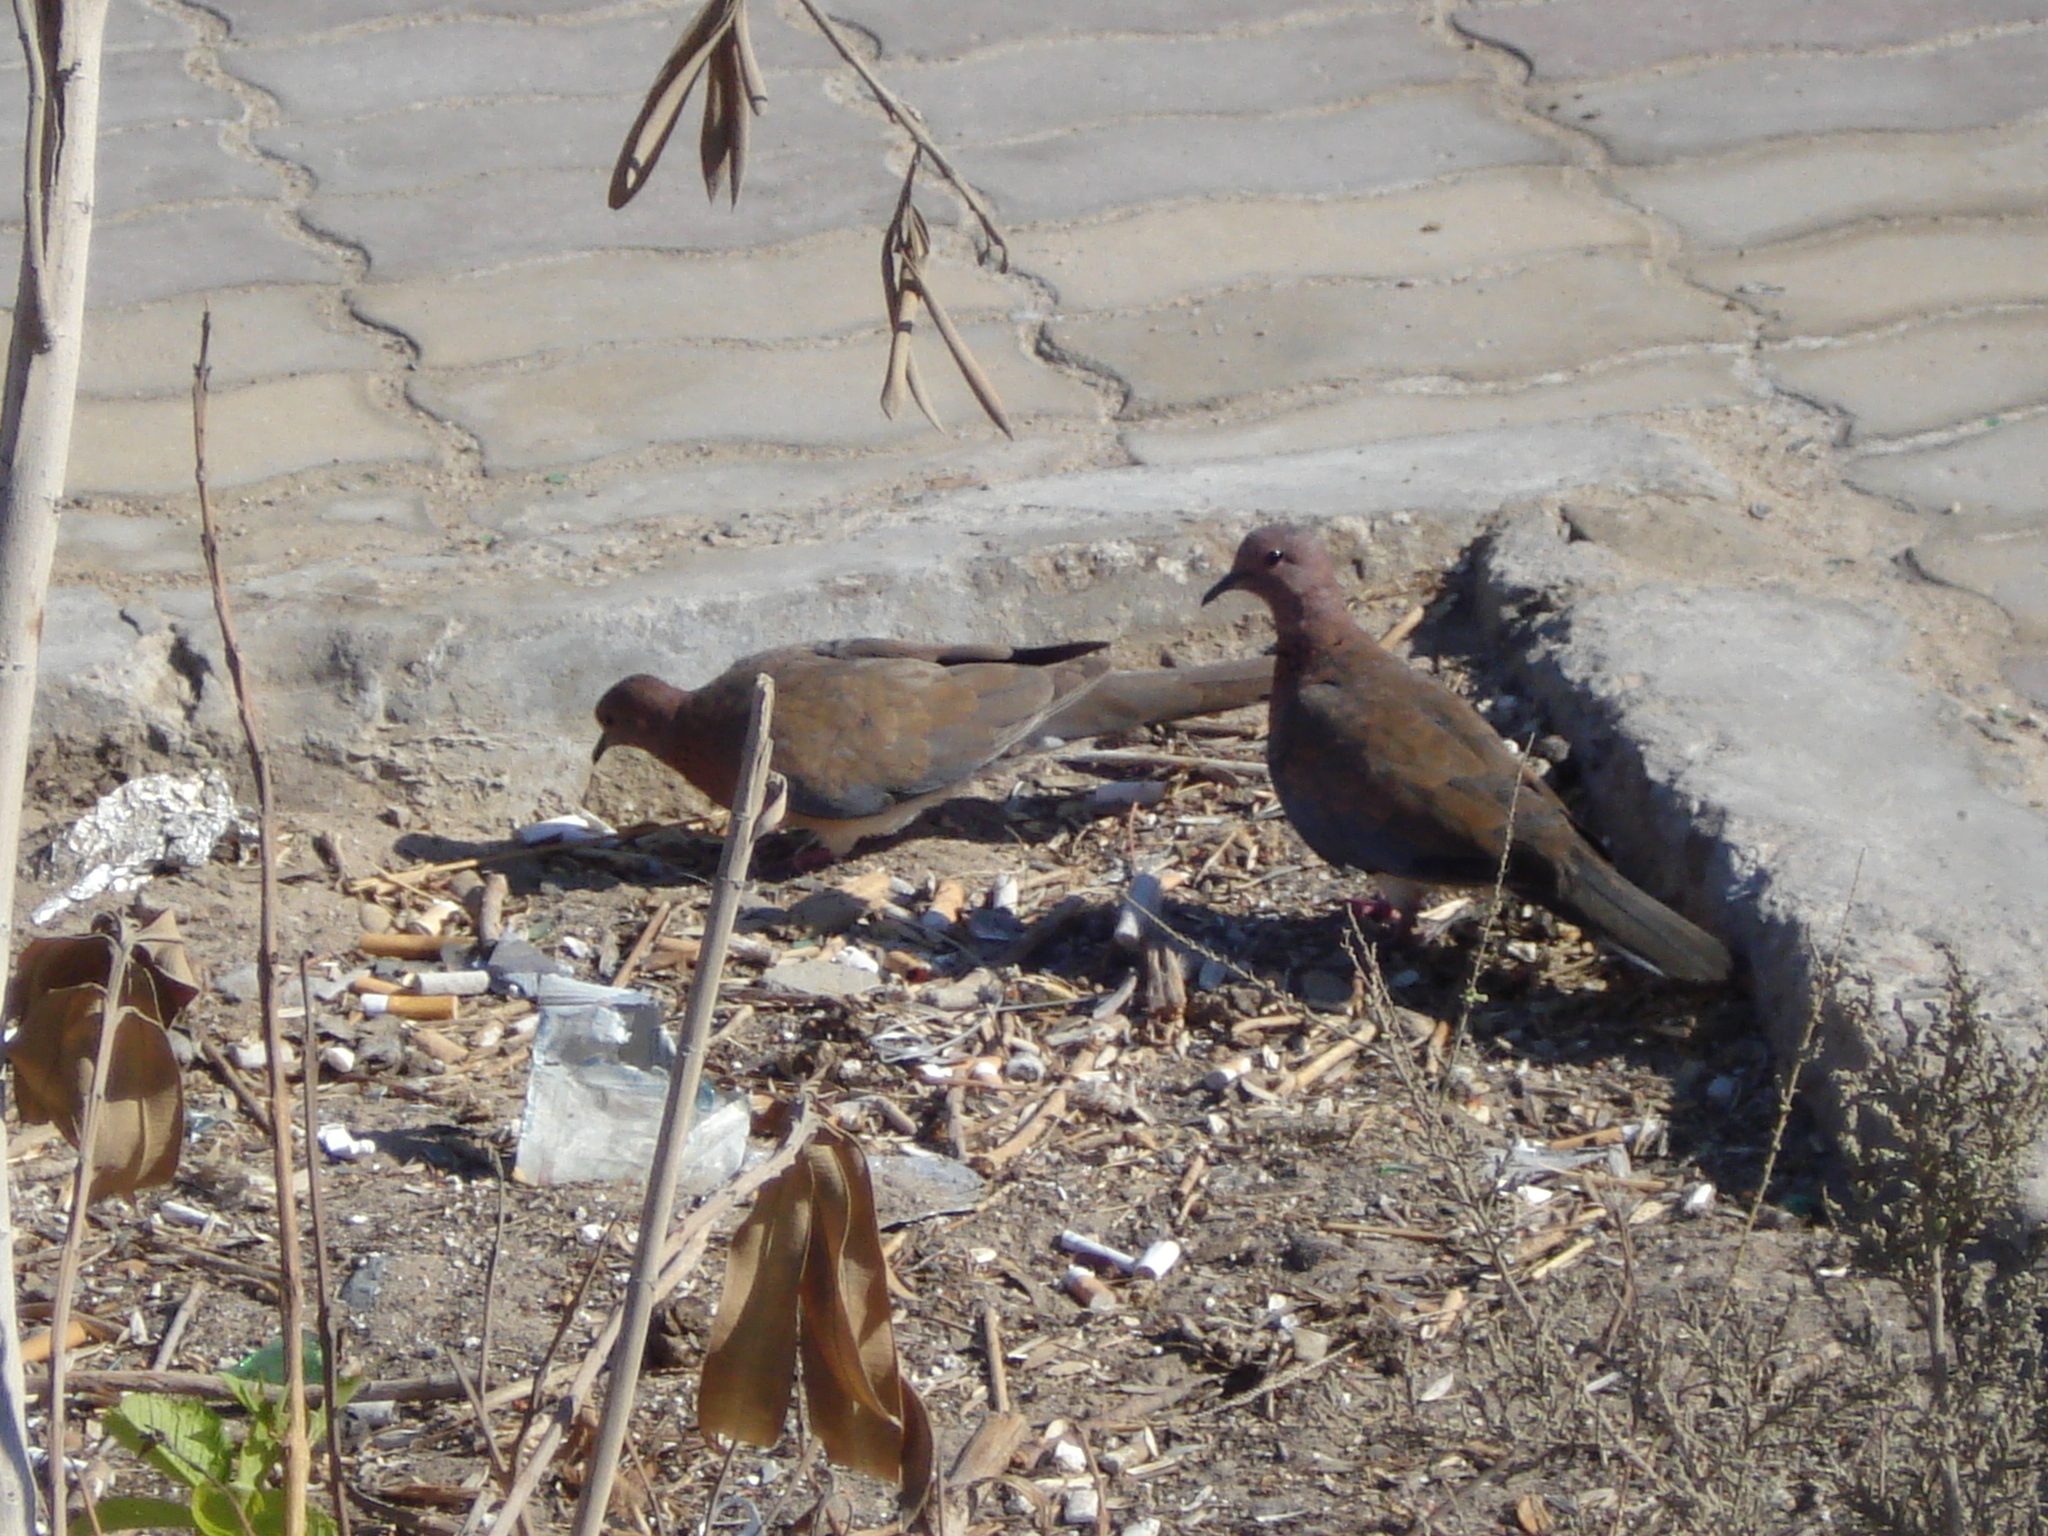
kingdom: Animalia
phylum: Chordata
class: Aves
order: Columbiformes
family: Columbidae
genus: Spilopelia
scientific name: Spilopelia senegalensis
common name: Laughing dove
